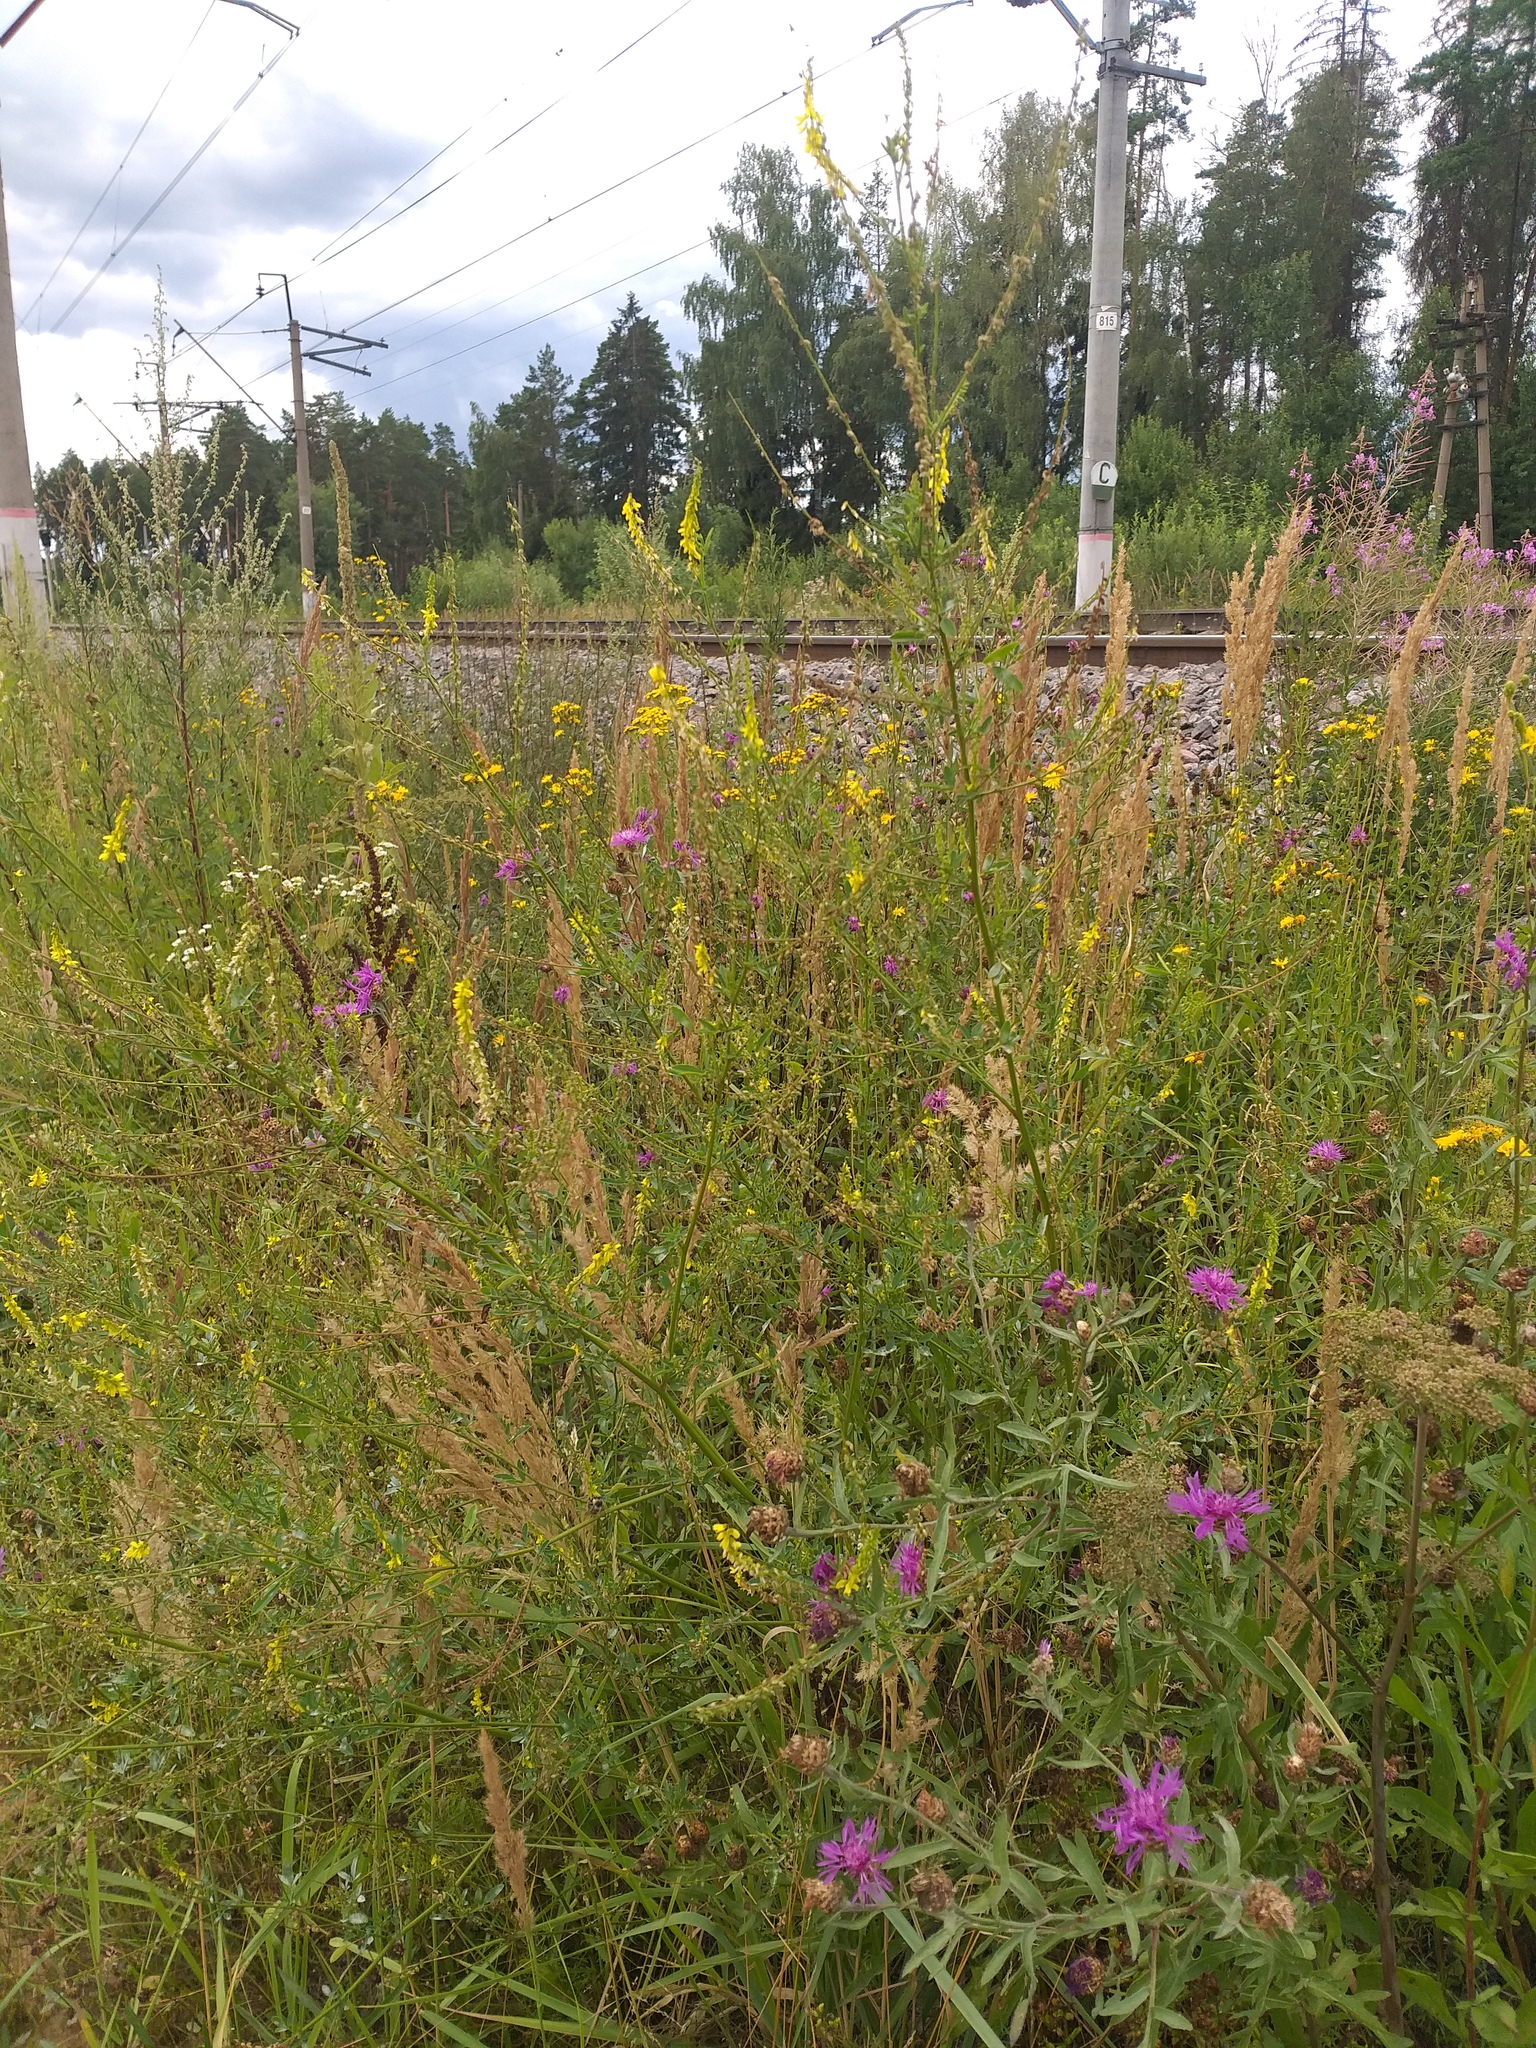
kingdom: Plantae
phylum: Tracheophyta
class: Magnoliopsida
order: Fabales
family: Fabaceae
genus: Melilotus
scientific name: Melilotus officinalis
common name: Sweetclover
